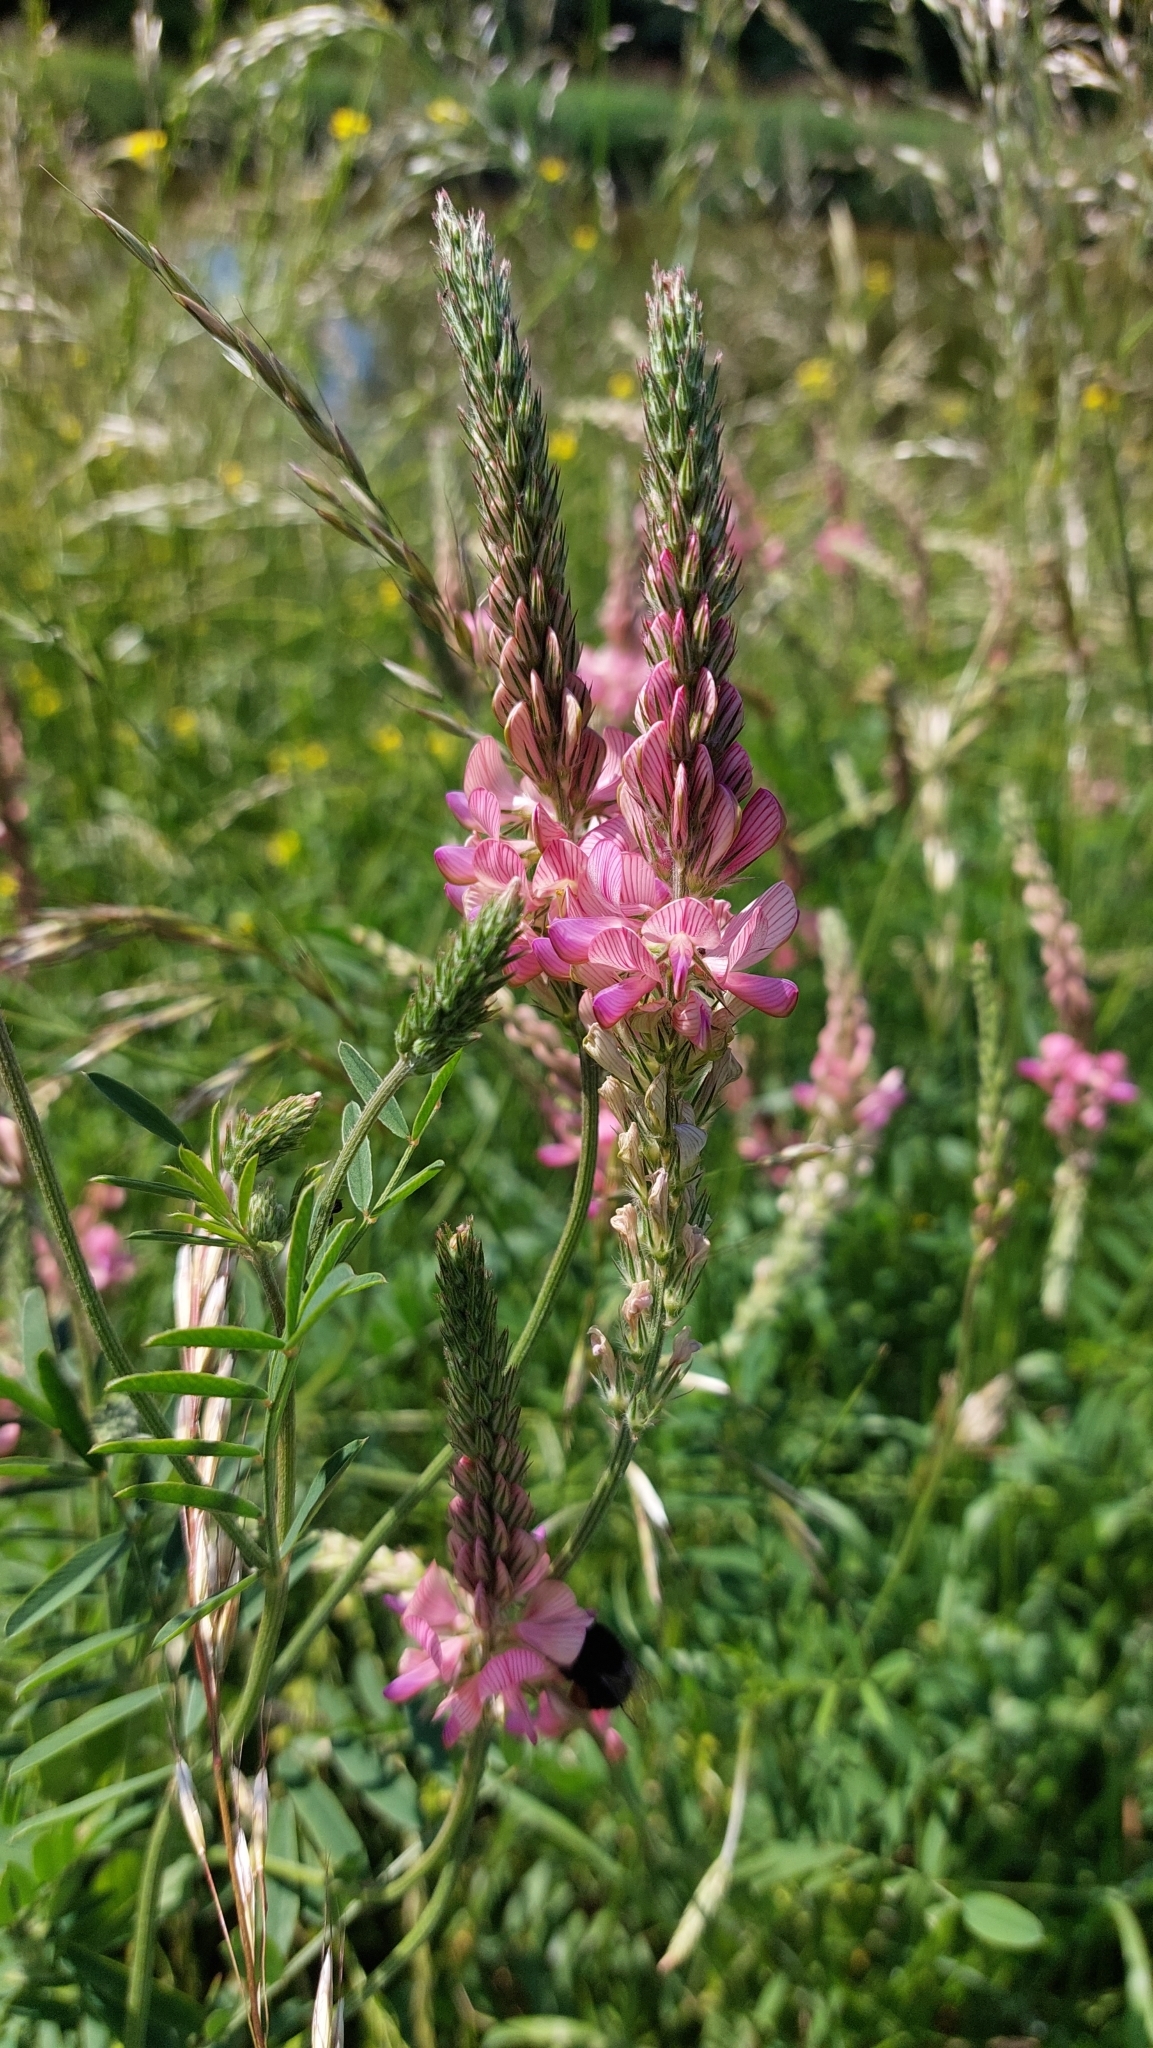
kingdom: Plantae
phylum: Tracheophyta
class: Magnoliopsida
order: Fabales
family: Fabaceae
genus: Onobrychis
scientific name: Onobrychis viciifolia
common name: Sainfoin
